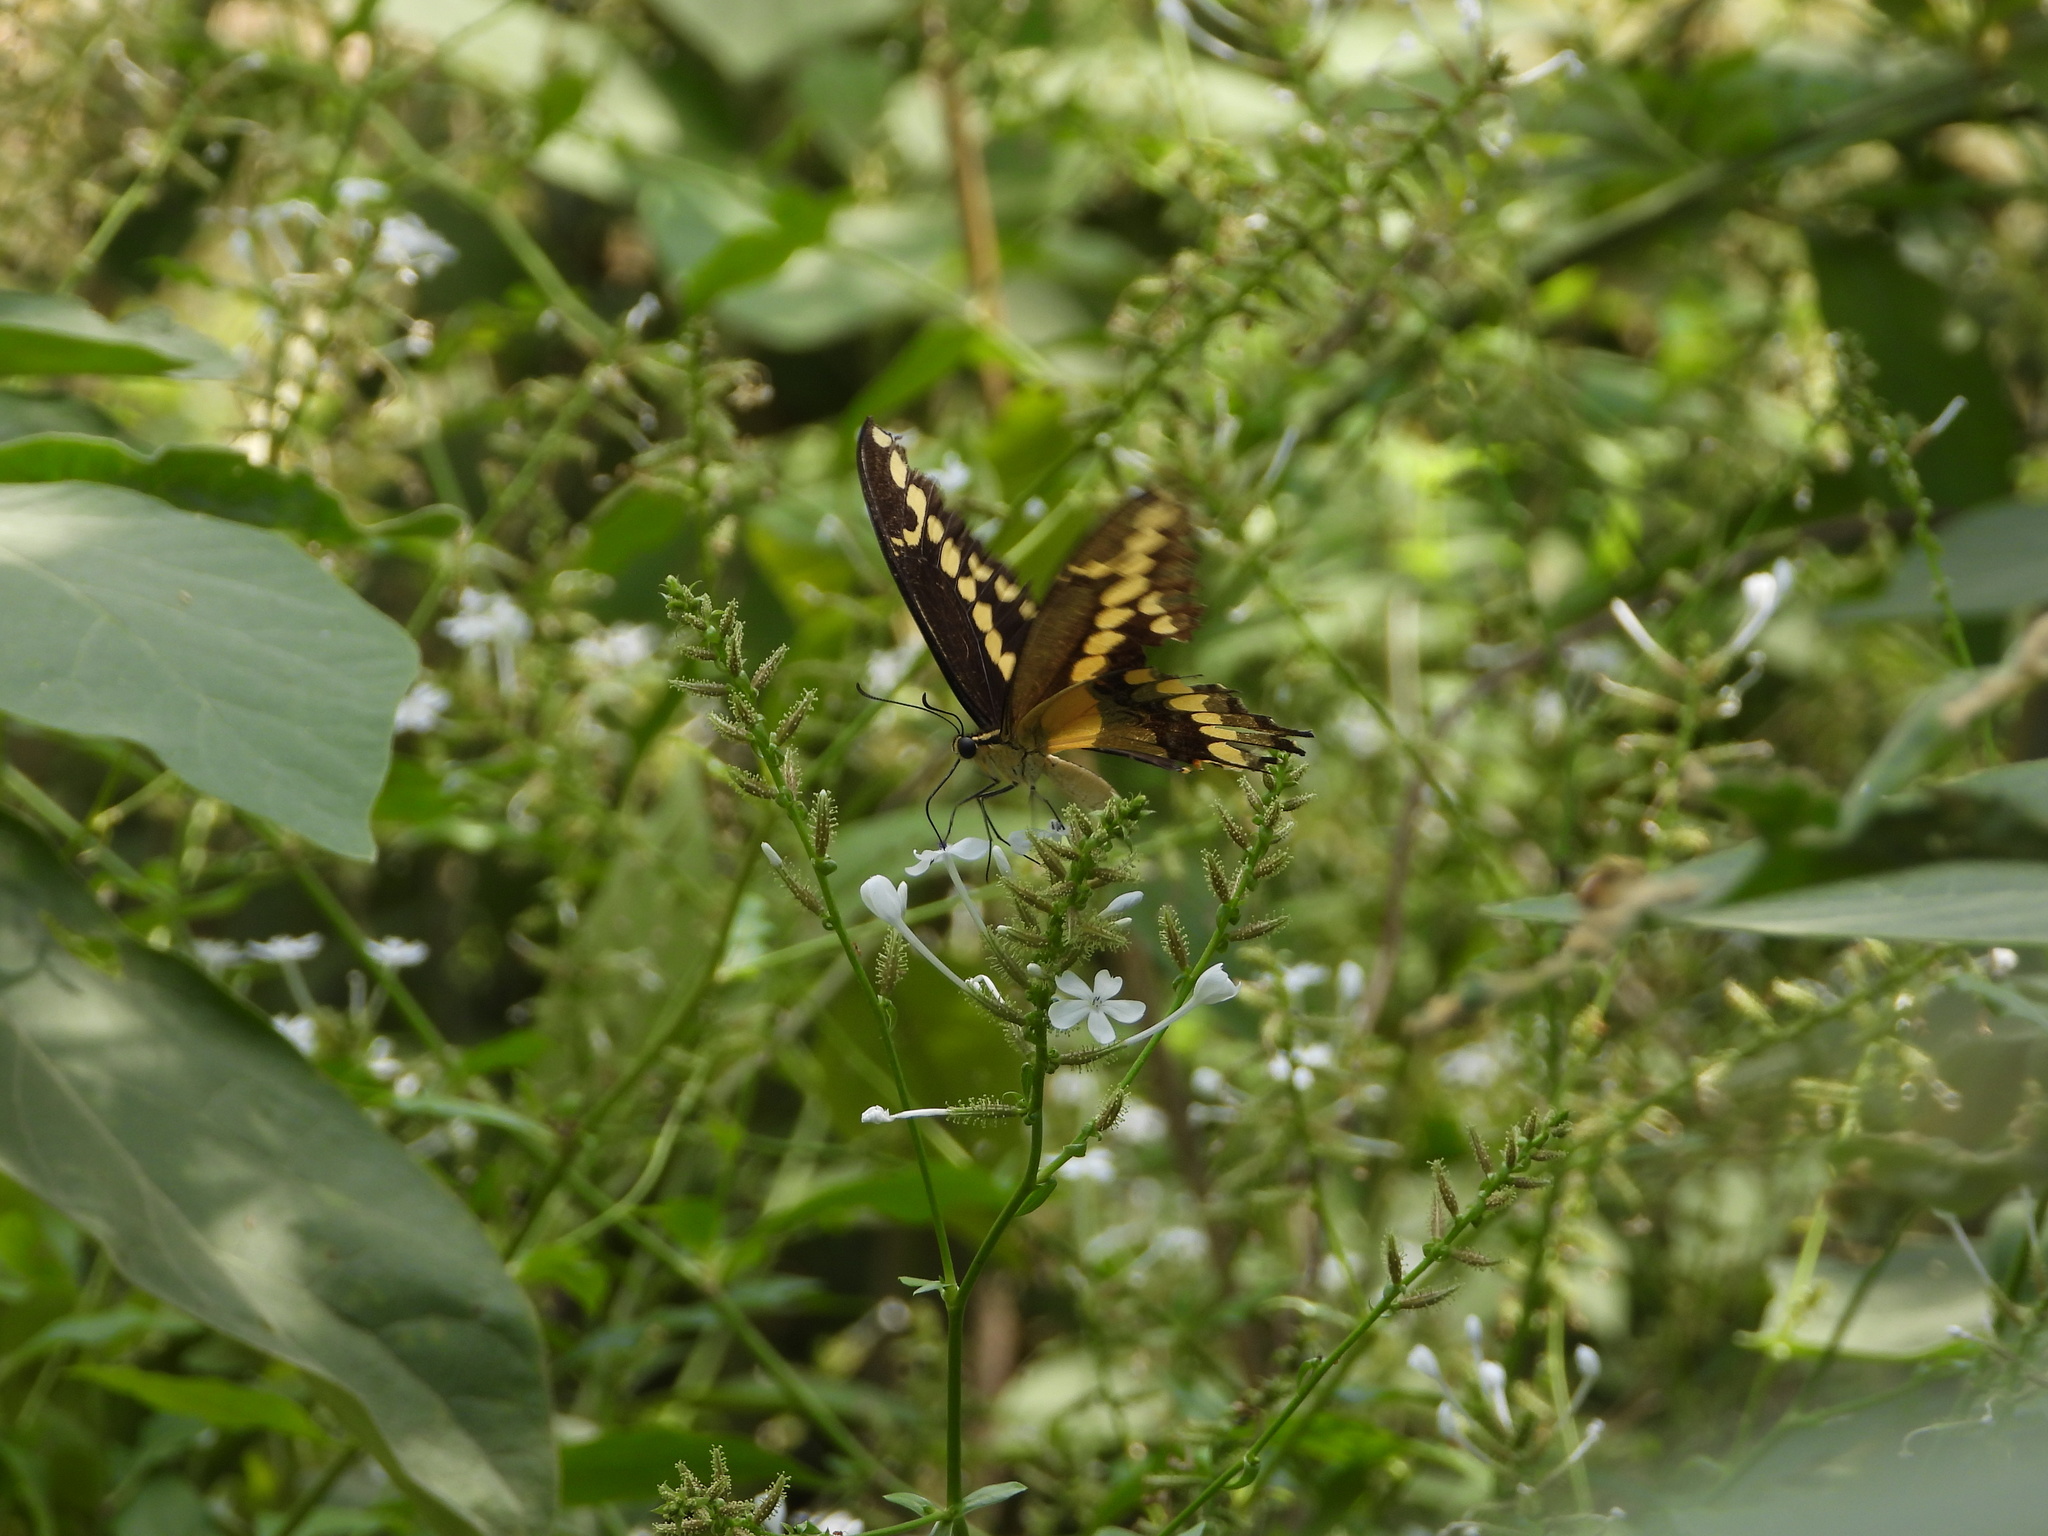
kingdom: Animalia
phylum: Arthropoda
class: Insecta
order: Lepidoptera
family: Papilionidae
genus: Papilio
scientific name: Papilio rumiko
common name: Western giant swallowtail
